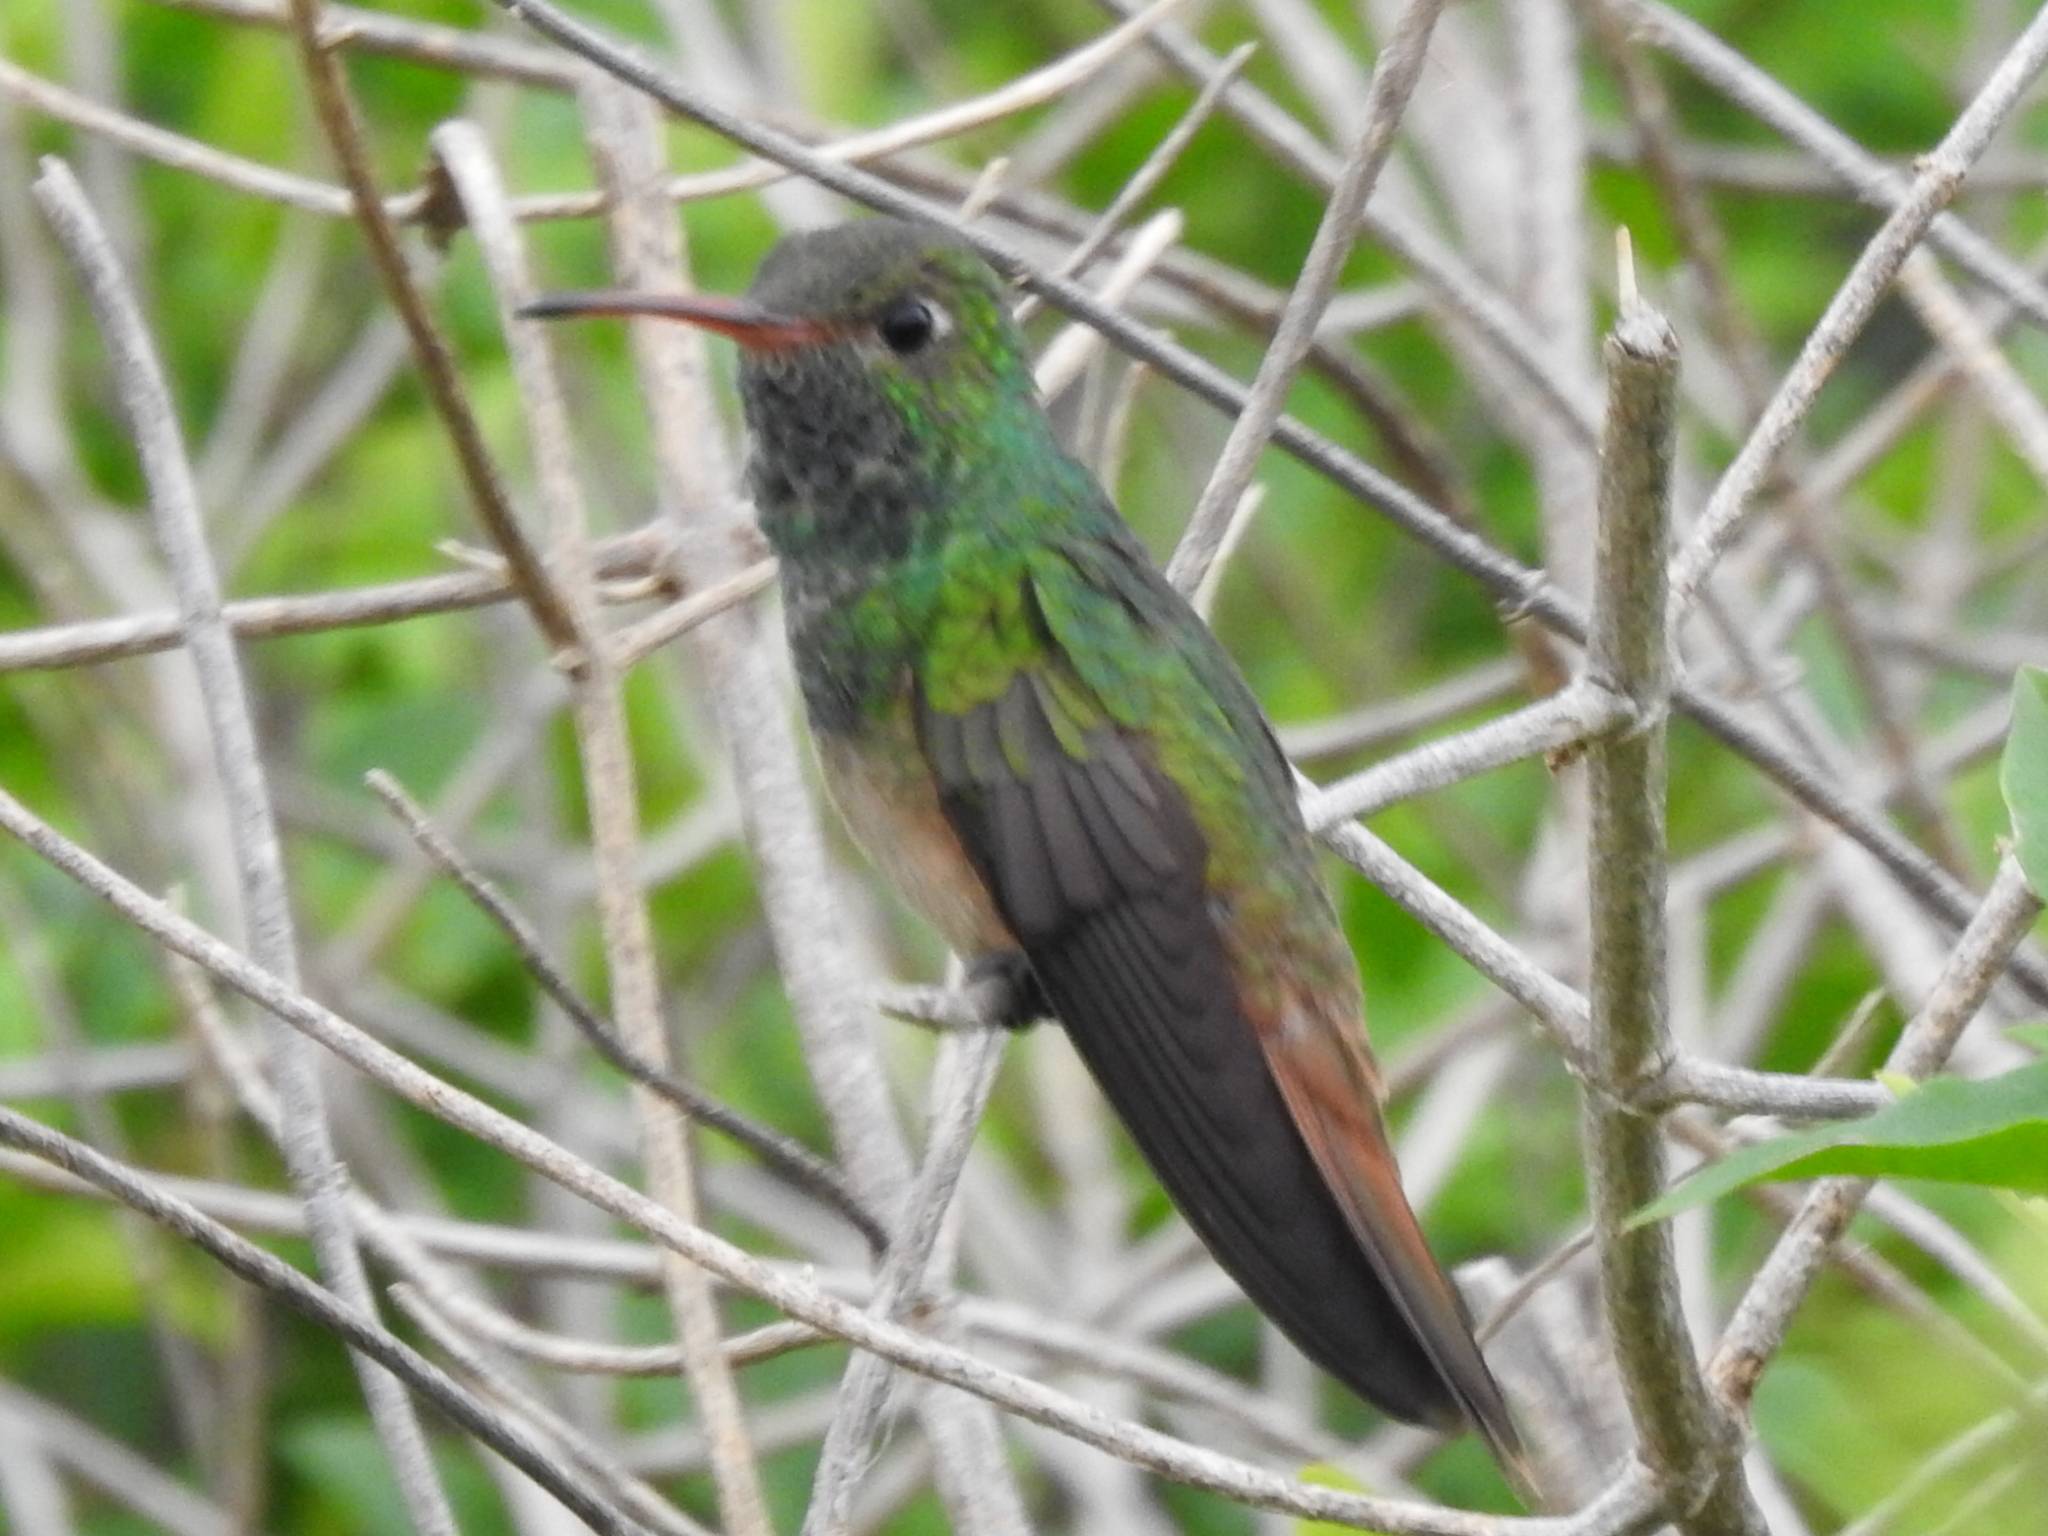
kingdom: Animalia
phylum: Chordata
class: Aves
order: Apodiformes
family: Trochilidae
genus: Amazilia
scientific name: Amazilia yucatanensis
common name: Buff-bellied hummingbird
